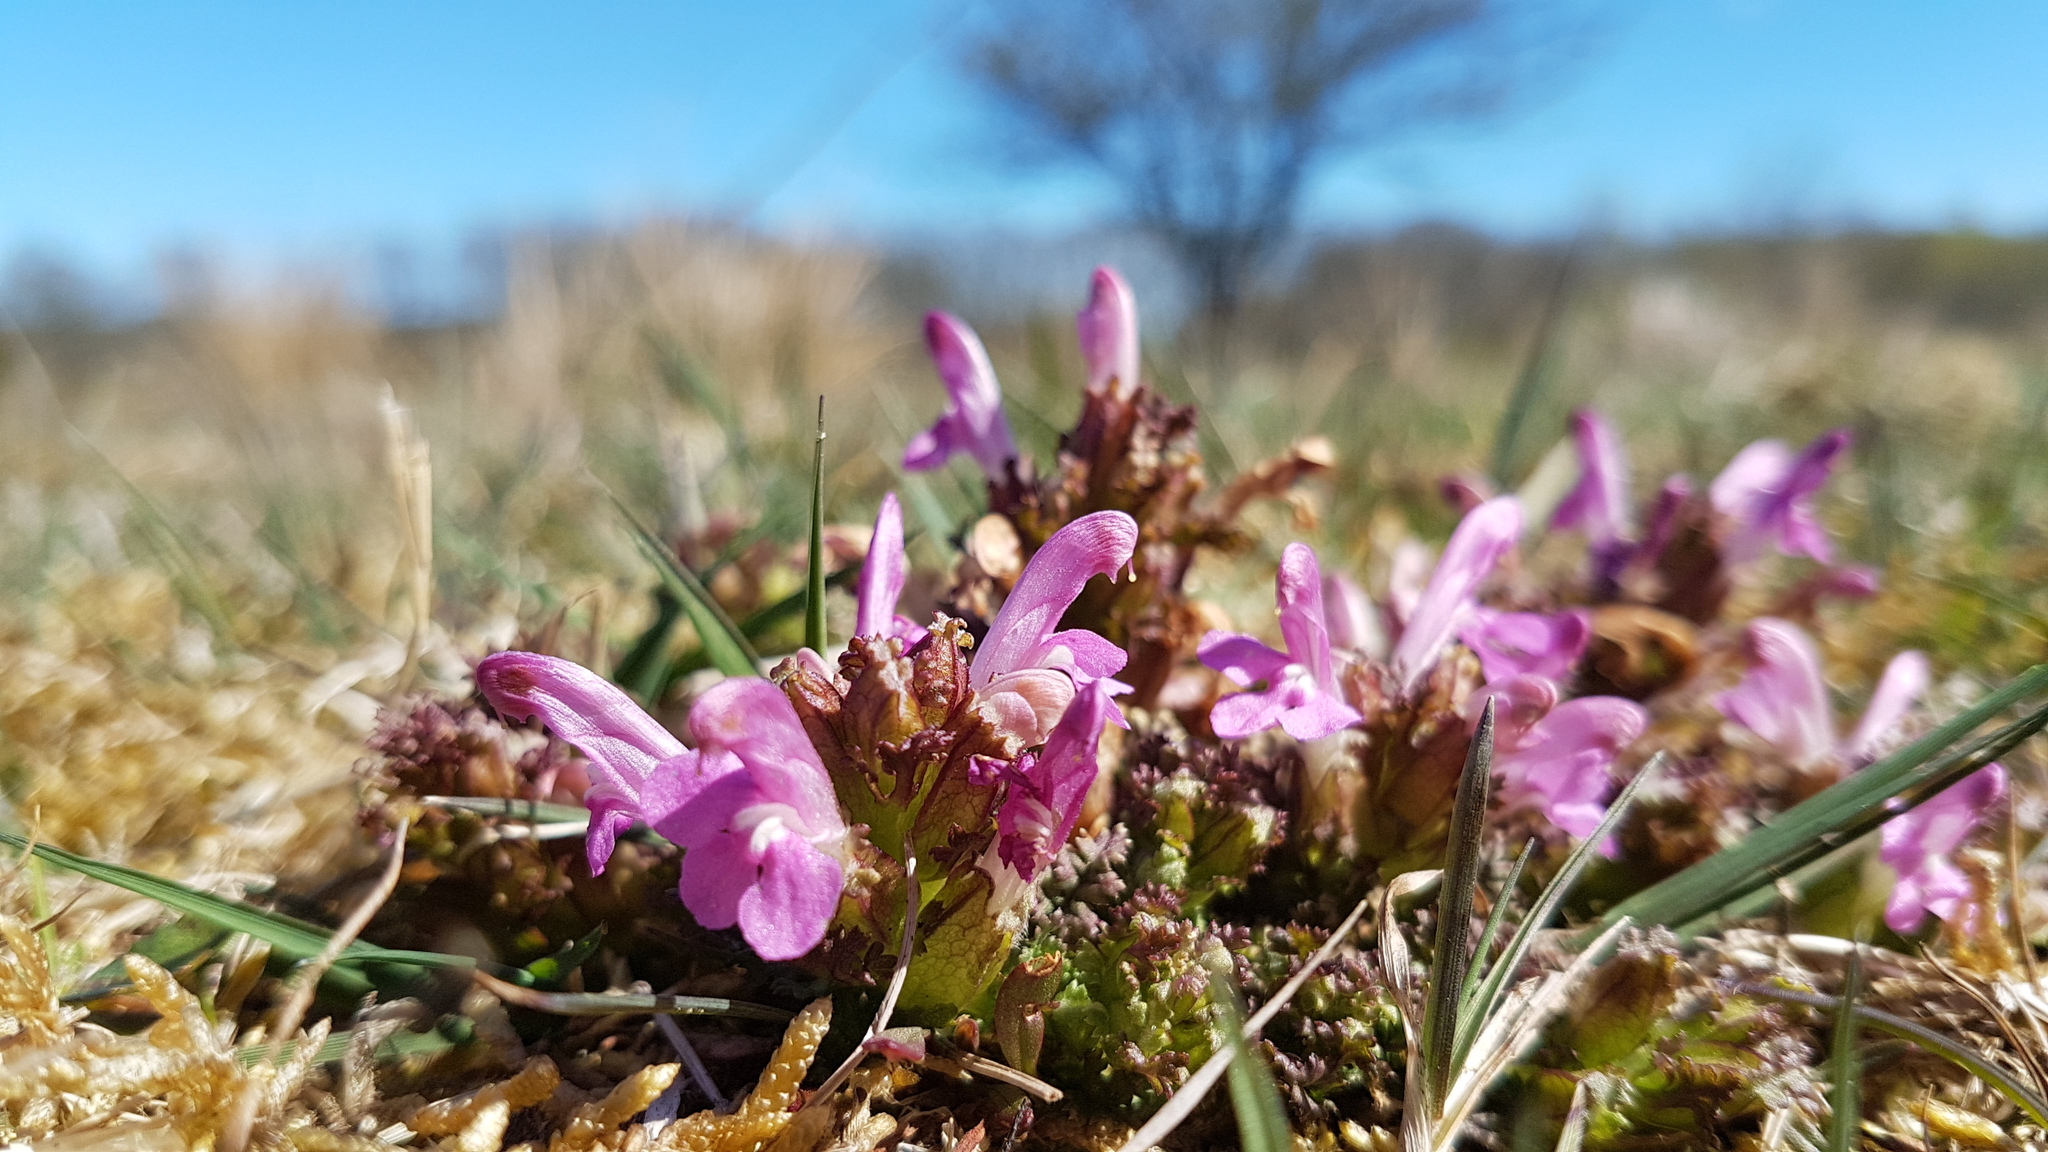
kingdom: Plantae
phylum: Tracheophyta
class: Magnoliopsida
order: Lamiales
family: Orobanchaceae
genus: Pedicularis
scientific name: Pedicularis sylvatica
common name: Lousewort
